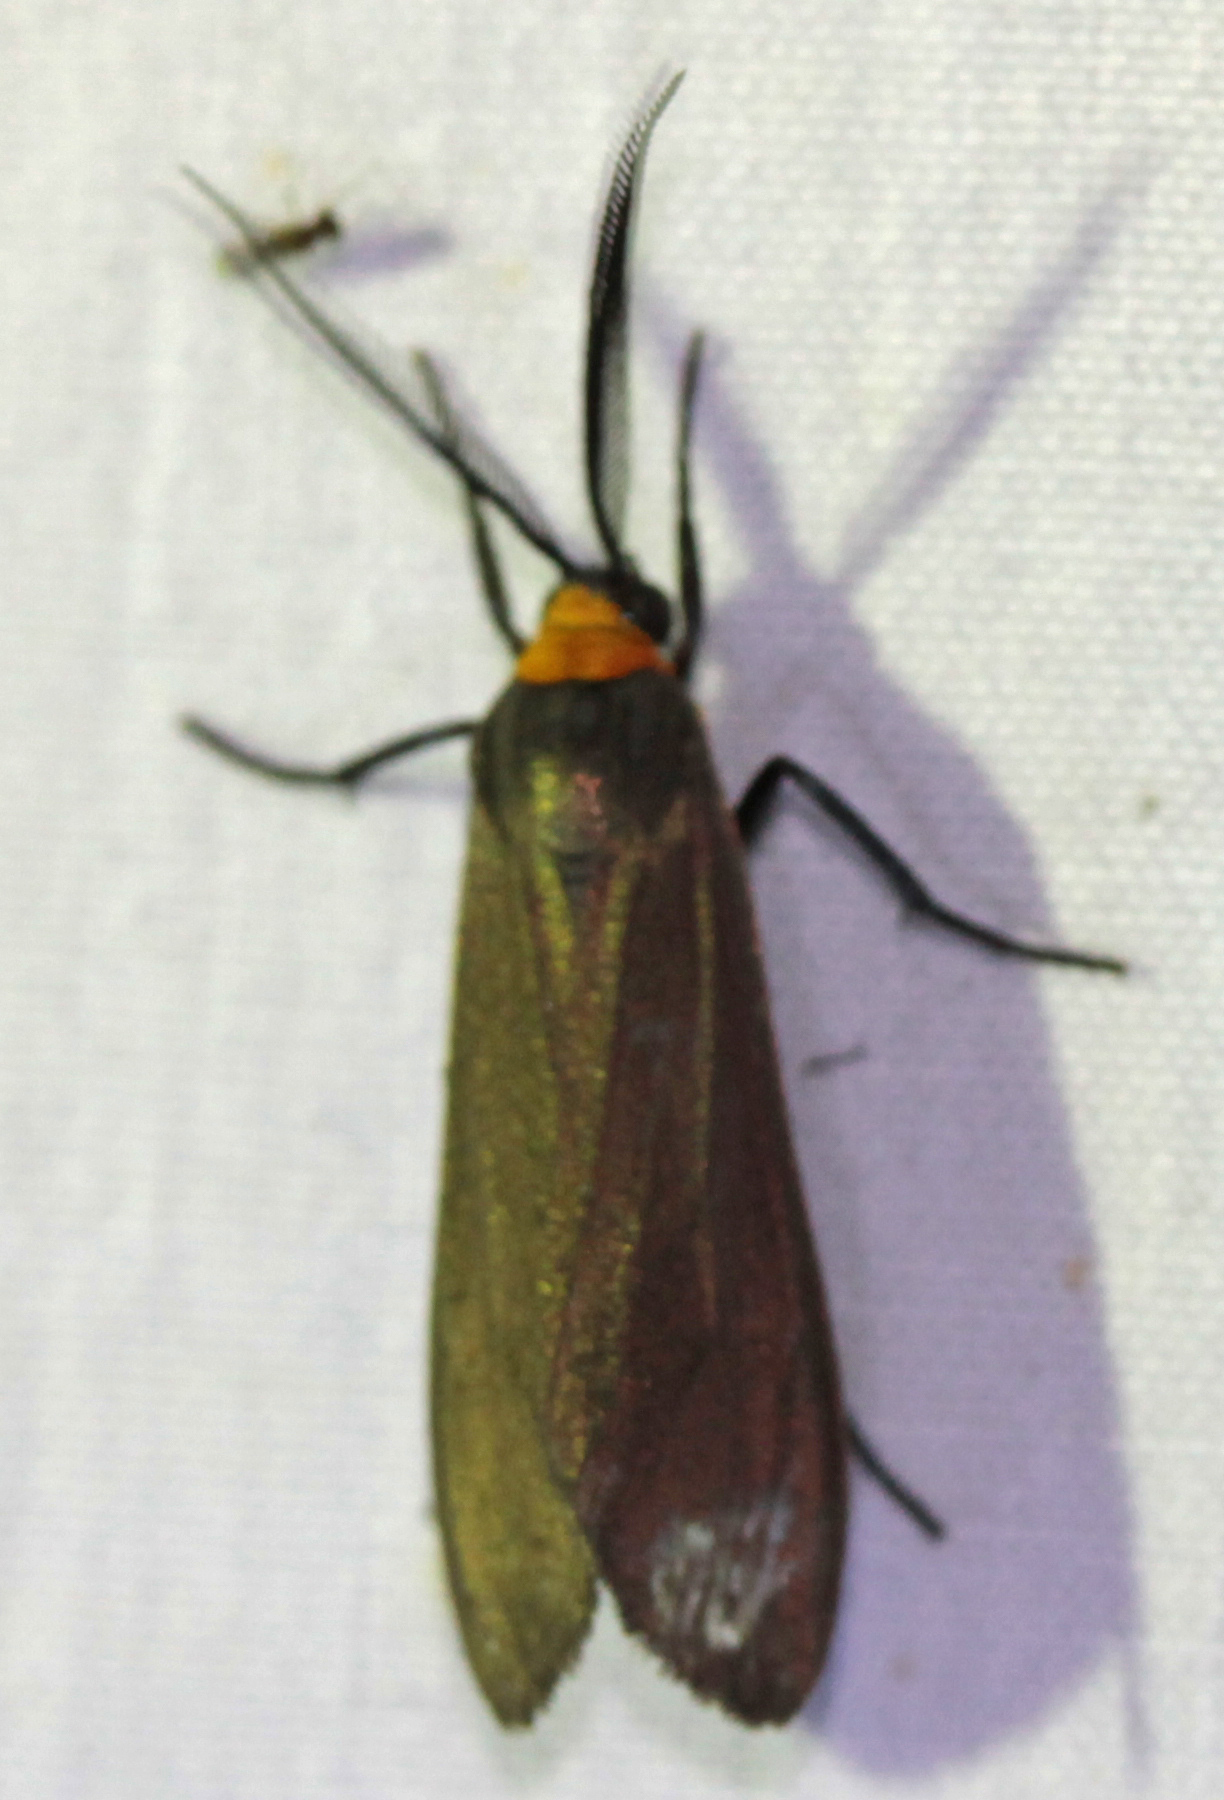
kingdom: Animalia
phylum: Arthropoda
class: Insecta
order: Lepidoptera
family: Erebidae
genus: Cisseps
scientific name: Cisseps fulvicollis
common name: Yellow-collared scape moth
